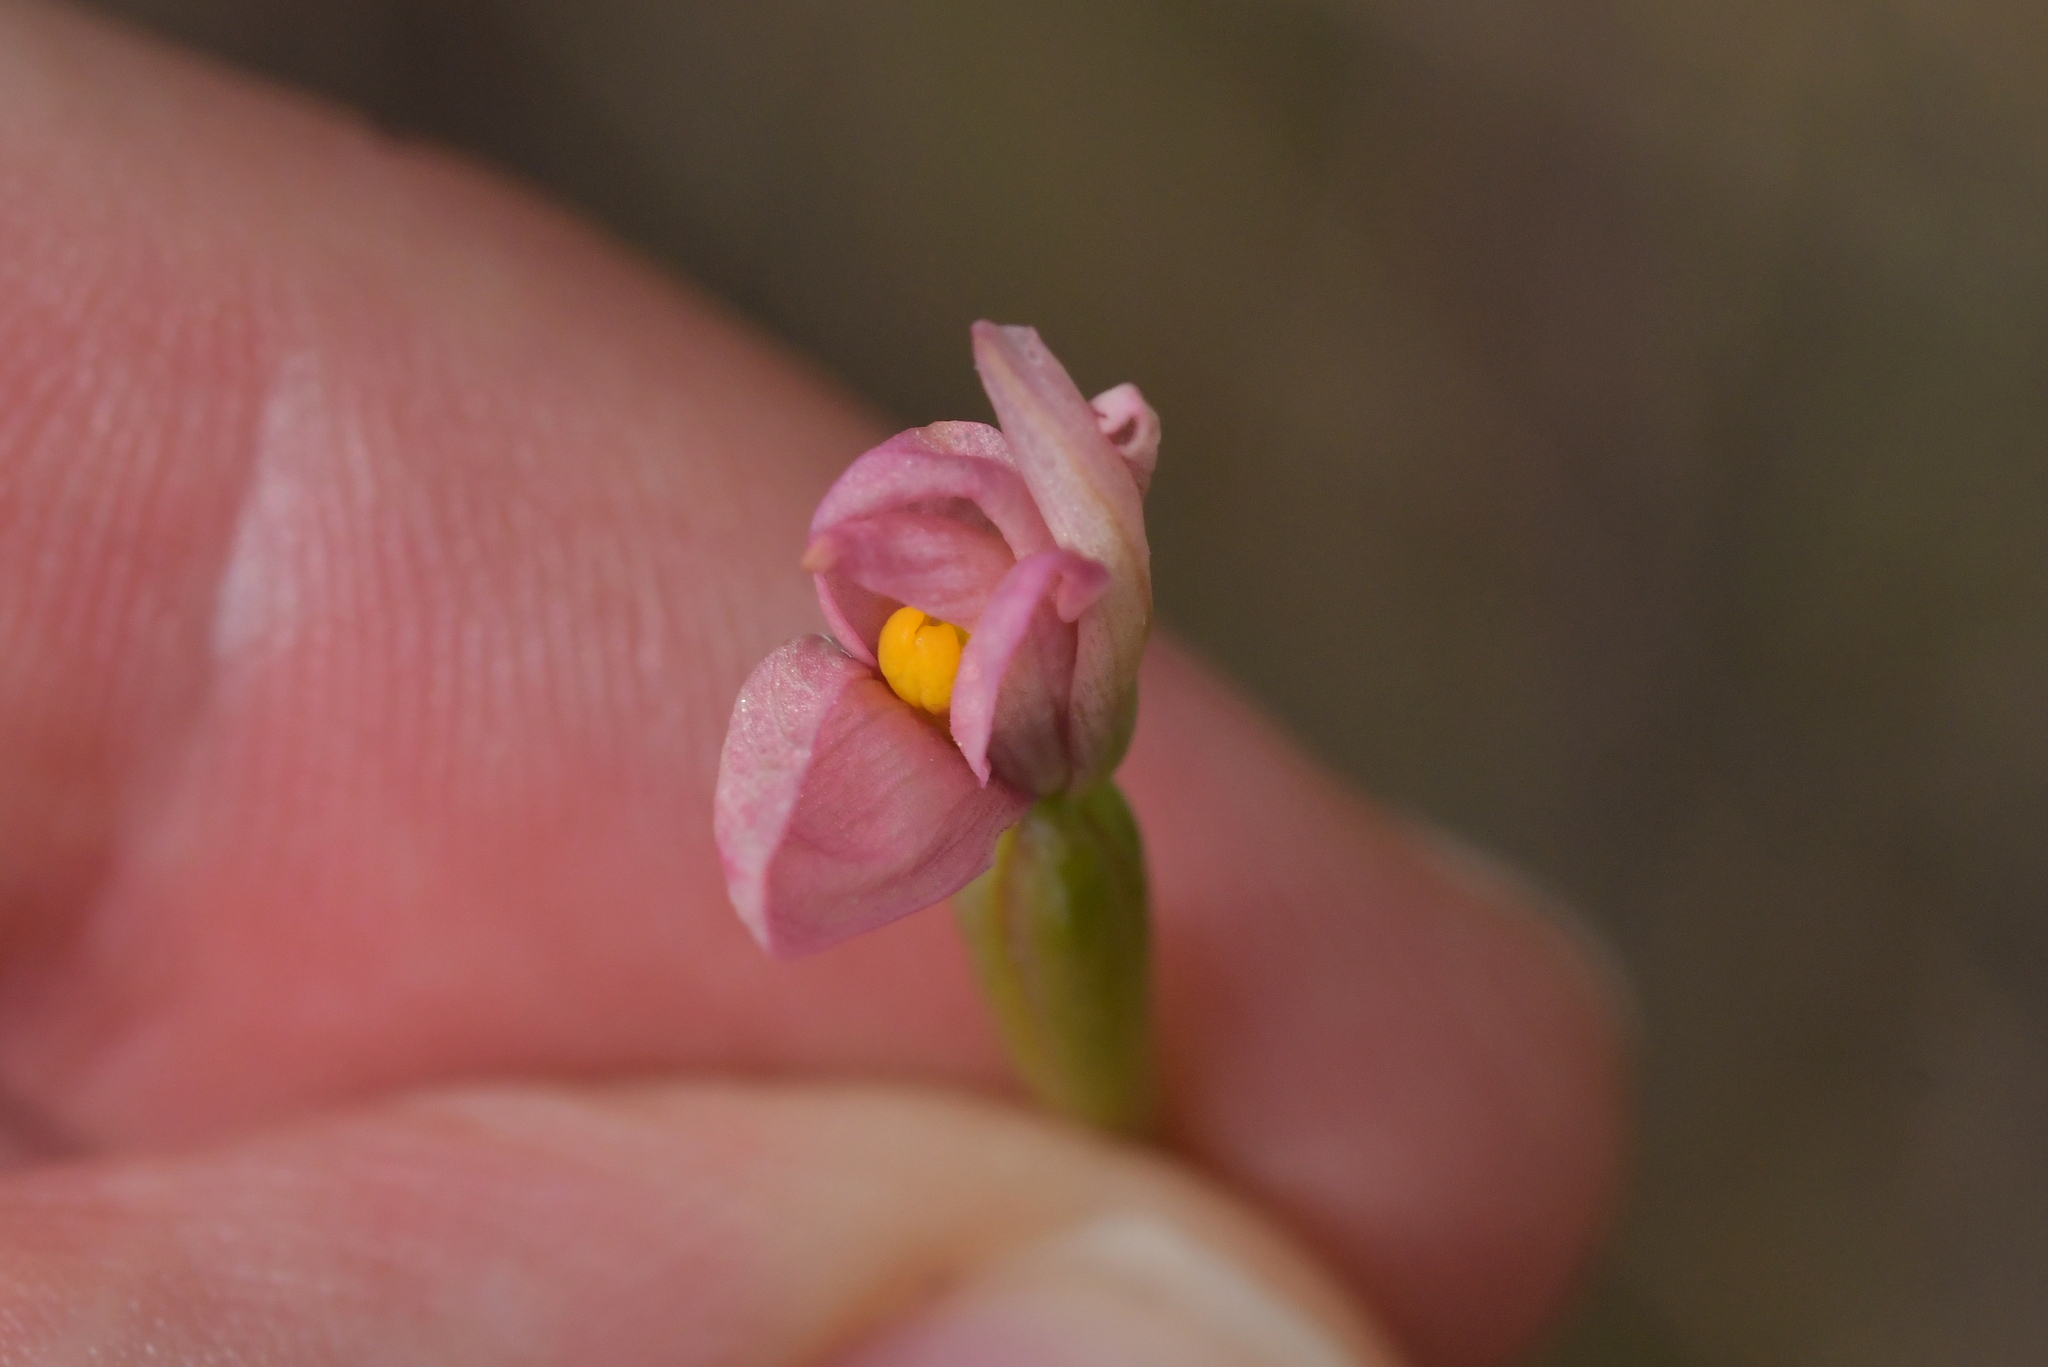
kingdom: Plantae
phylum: Tracheophyta
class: Liliopsida
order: Asparagales
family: Orchidaceae
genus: Thelymitra
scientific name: Thelymitra carnea
